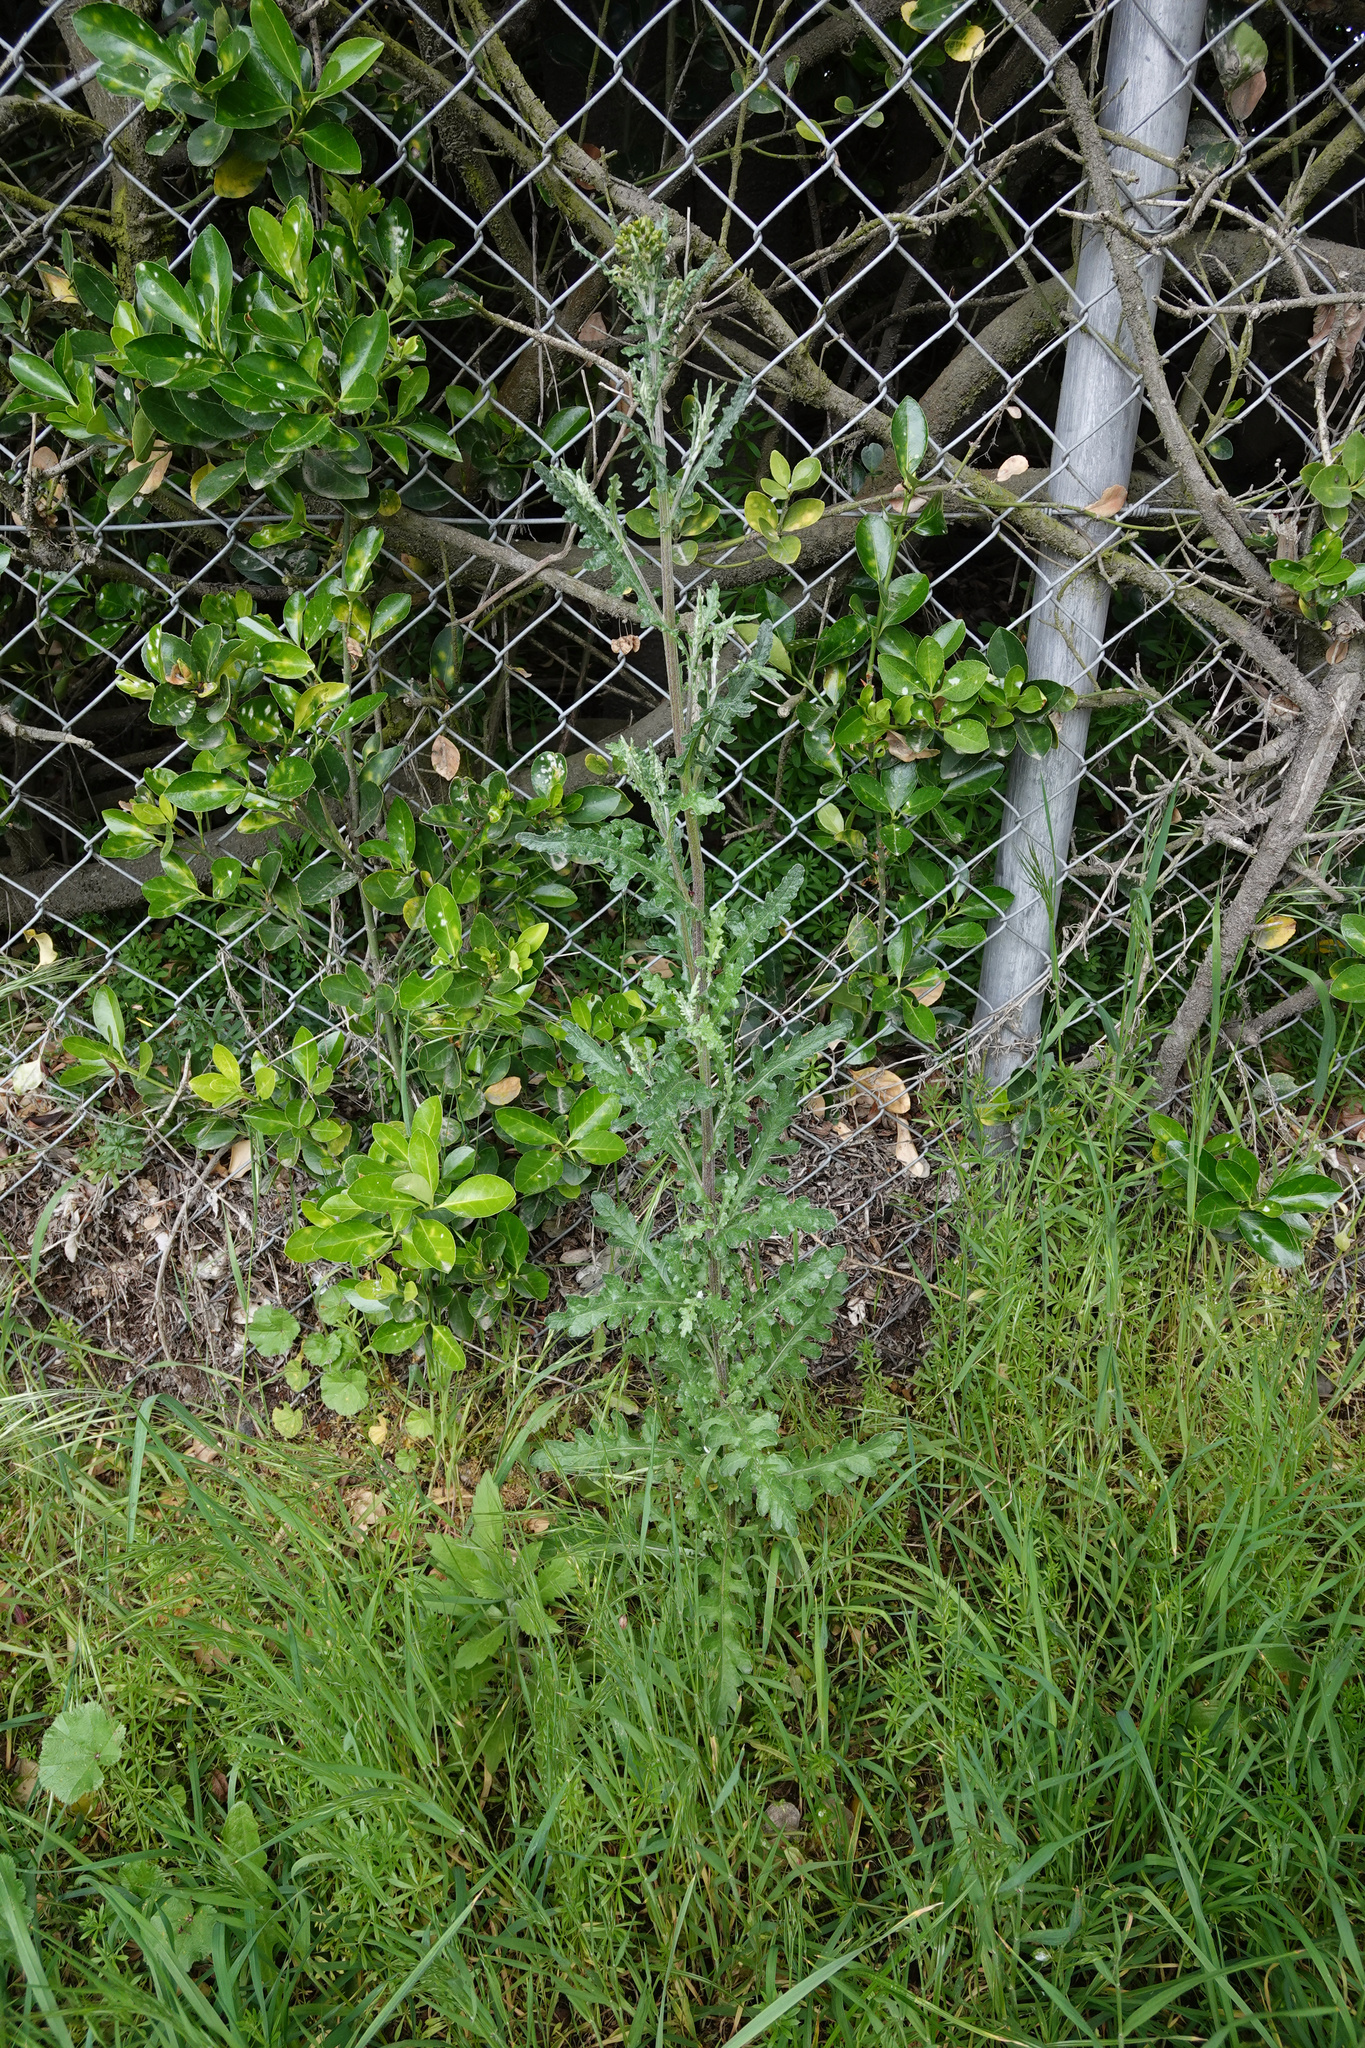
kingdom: Plantae
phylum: Tracheophyta
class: Magnoliopsida
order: Asterales
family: Asteraceae
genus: Senecio
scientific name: Senecio glomeratus
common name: Cutleaf burnweed
